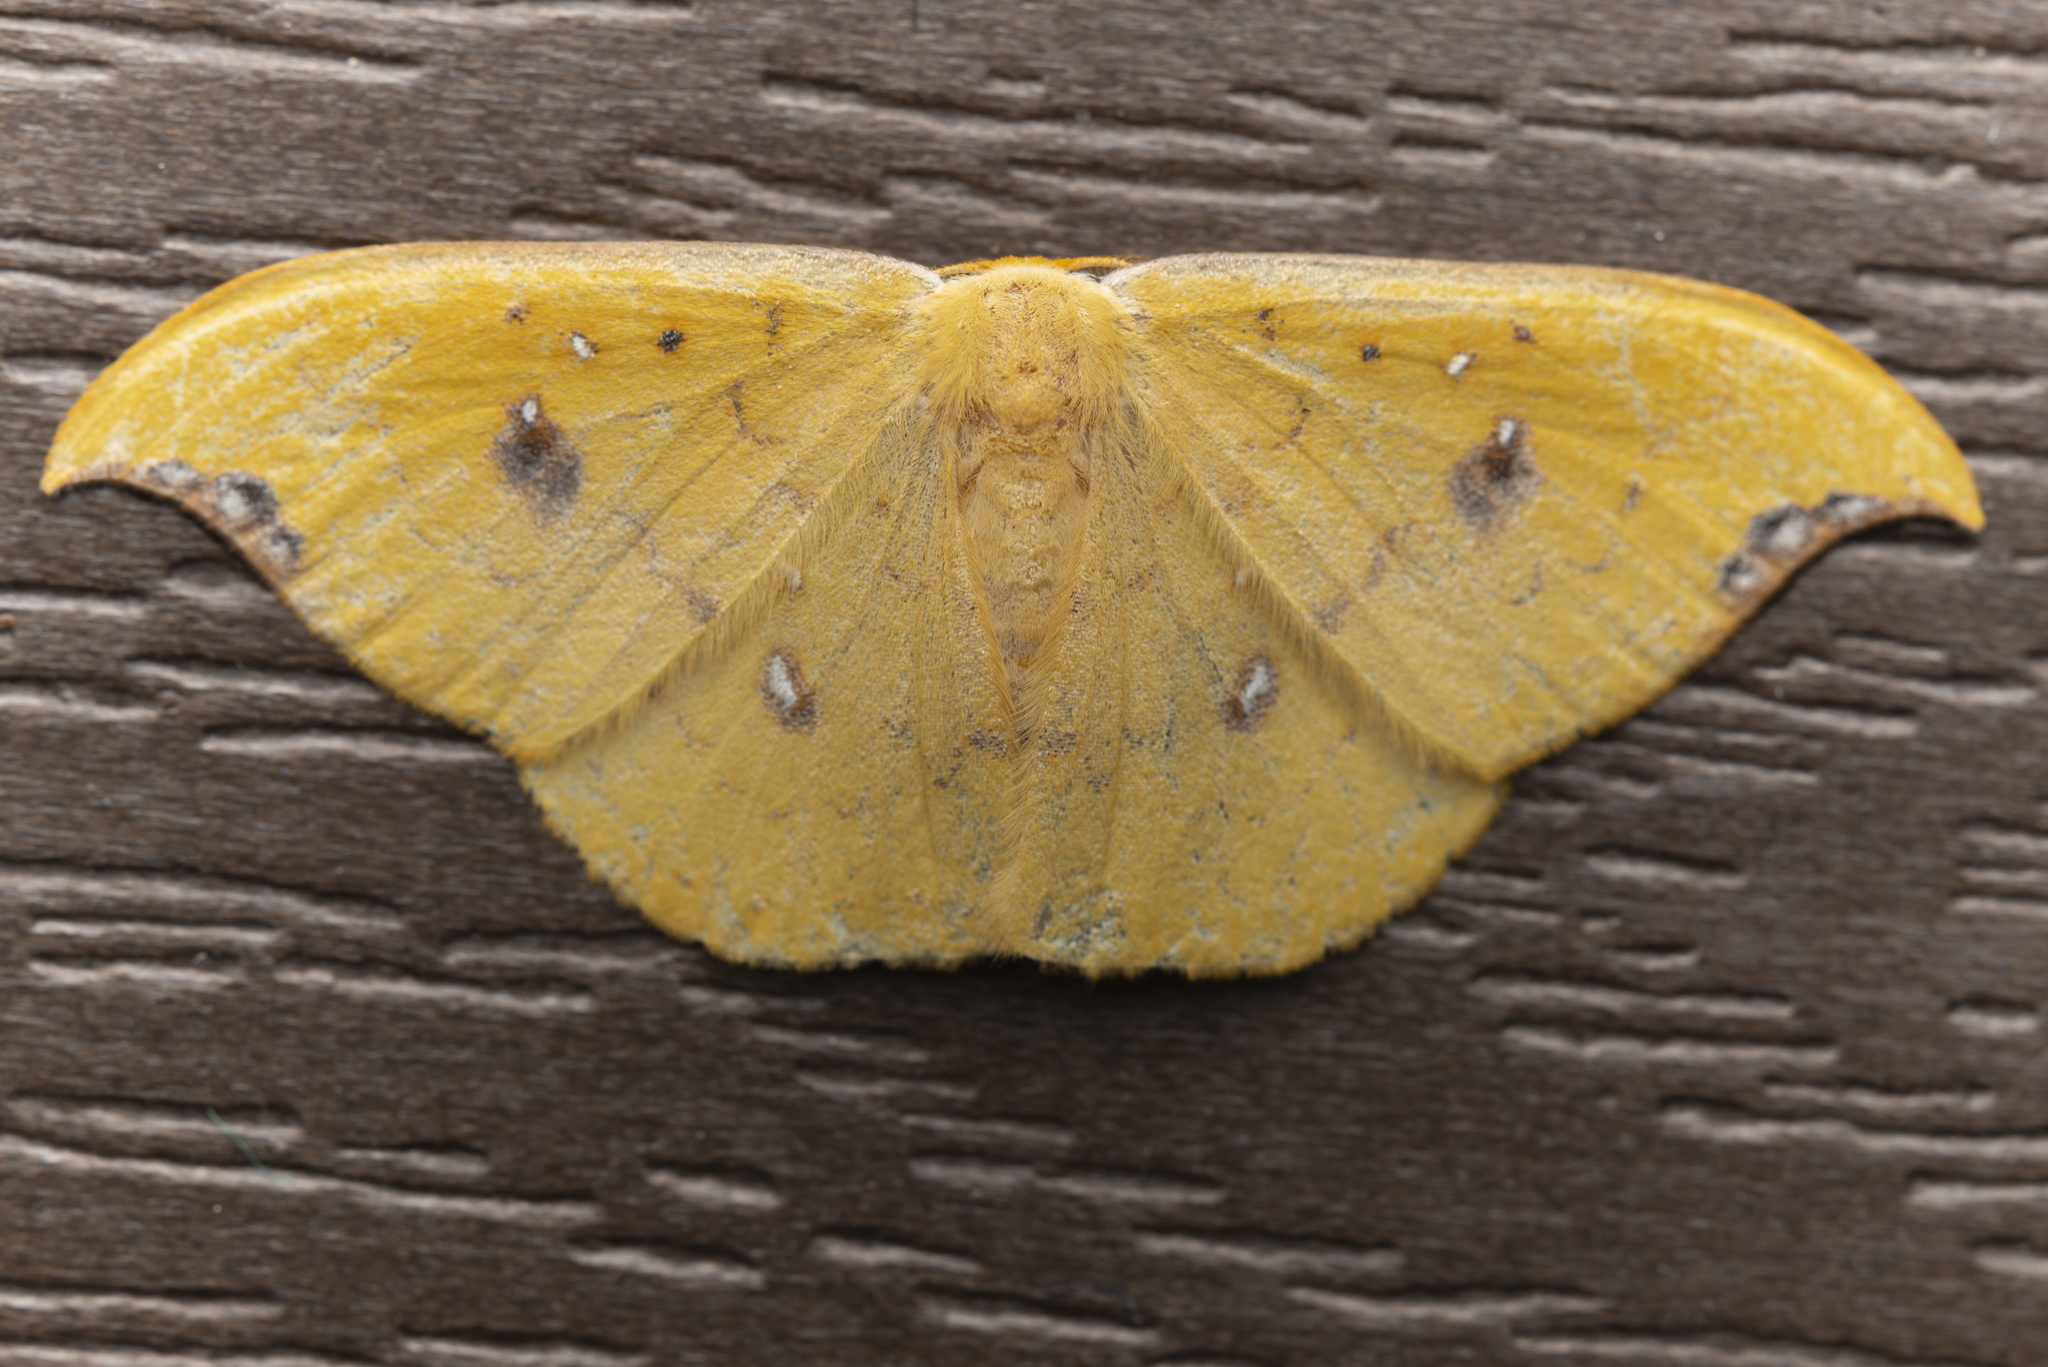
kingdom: Animalia
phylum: Arthropoda
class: Insecta
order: Lepidoptera
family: Drepanidae
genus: Tridrepana
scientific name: Tridrepana fulvata
